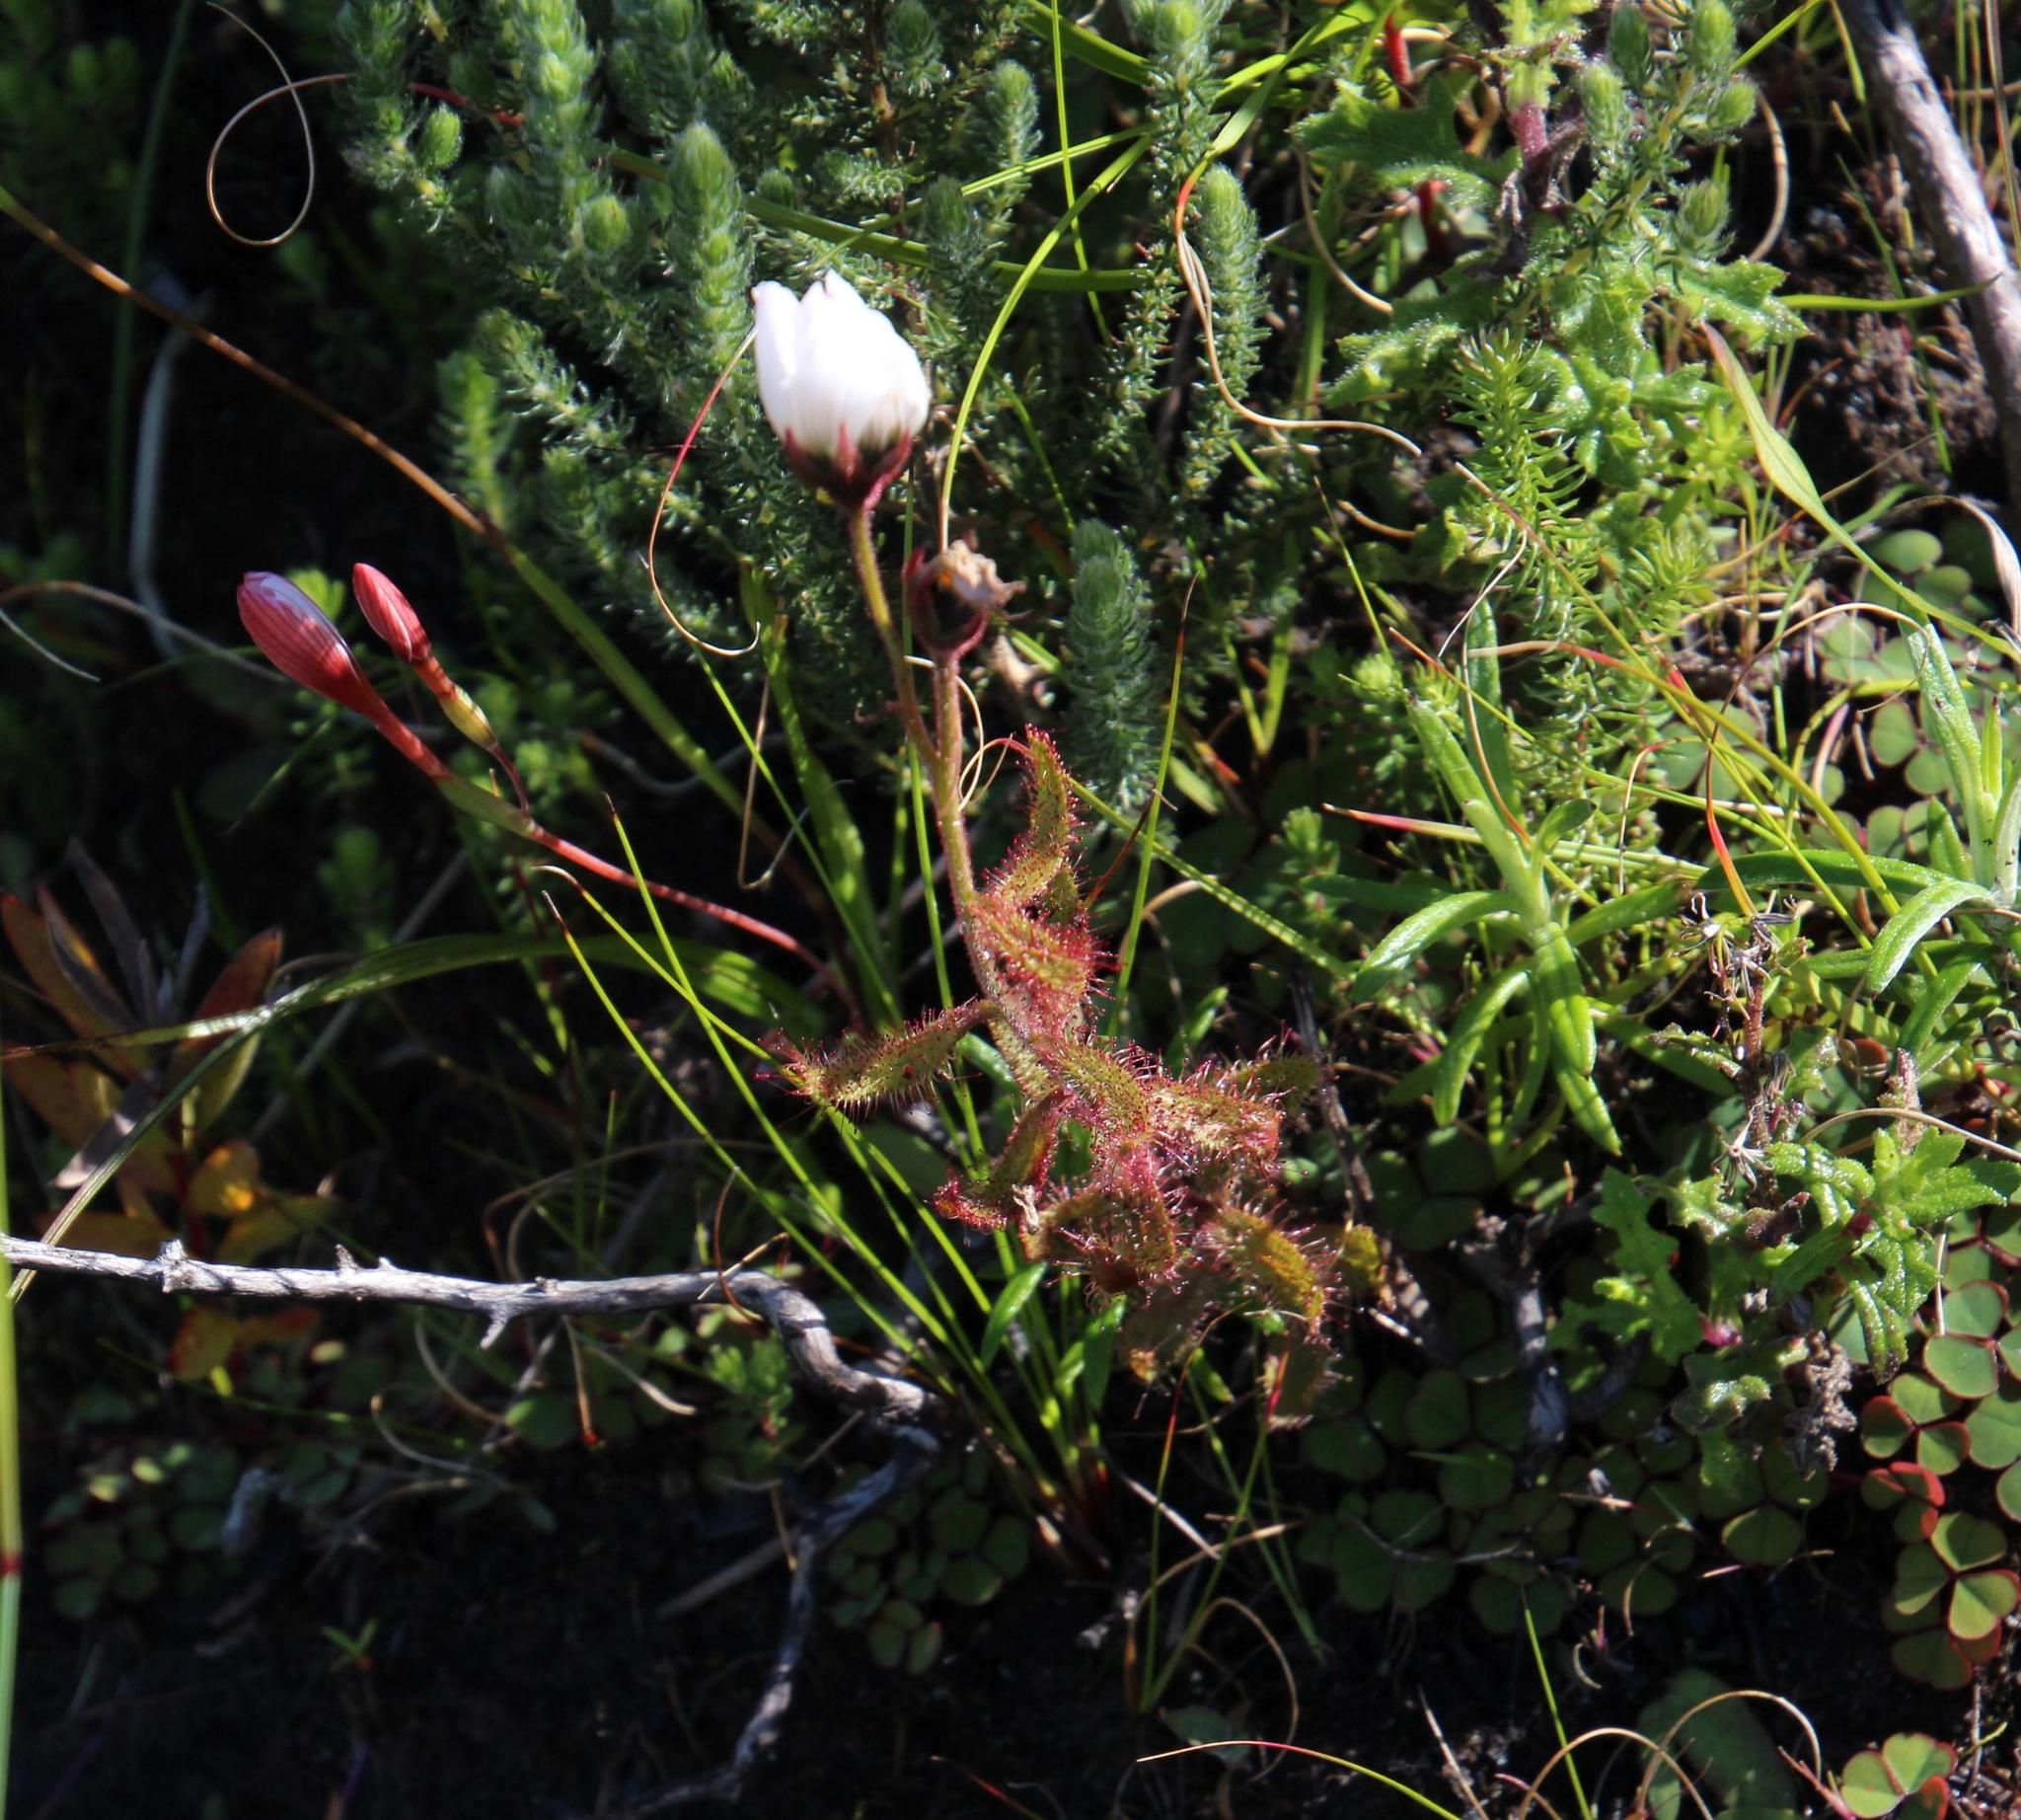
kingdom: Plantae
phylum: Tracheophyta
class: Magnoliopsida
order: Caryophyllales
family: Droseraceae
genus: Drosera
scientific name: Drosera cistiflora
